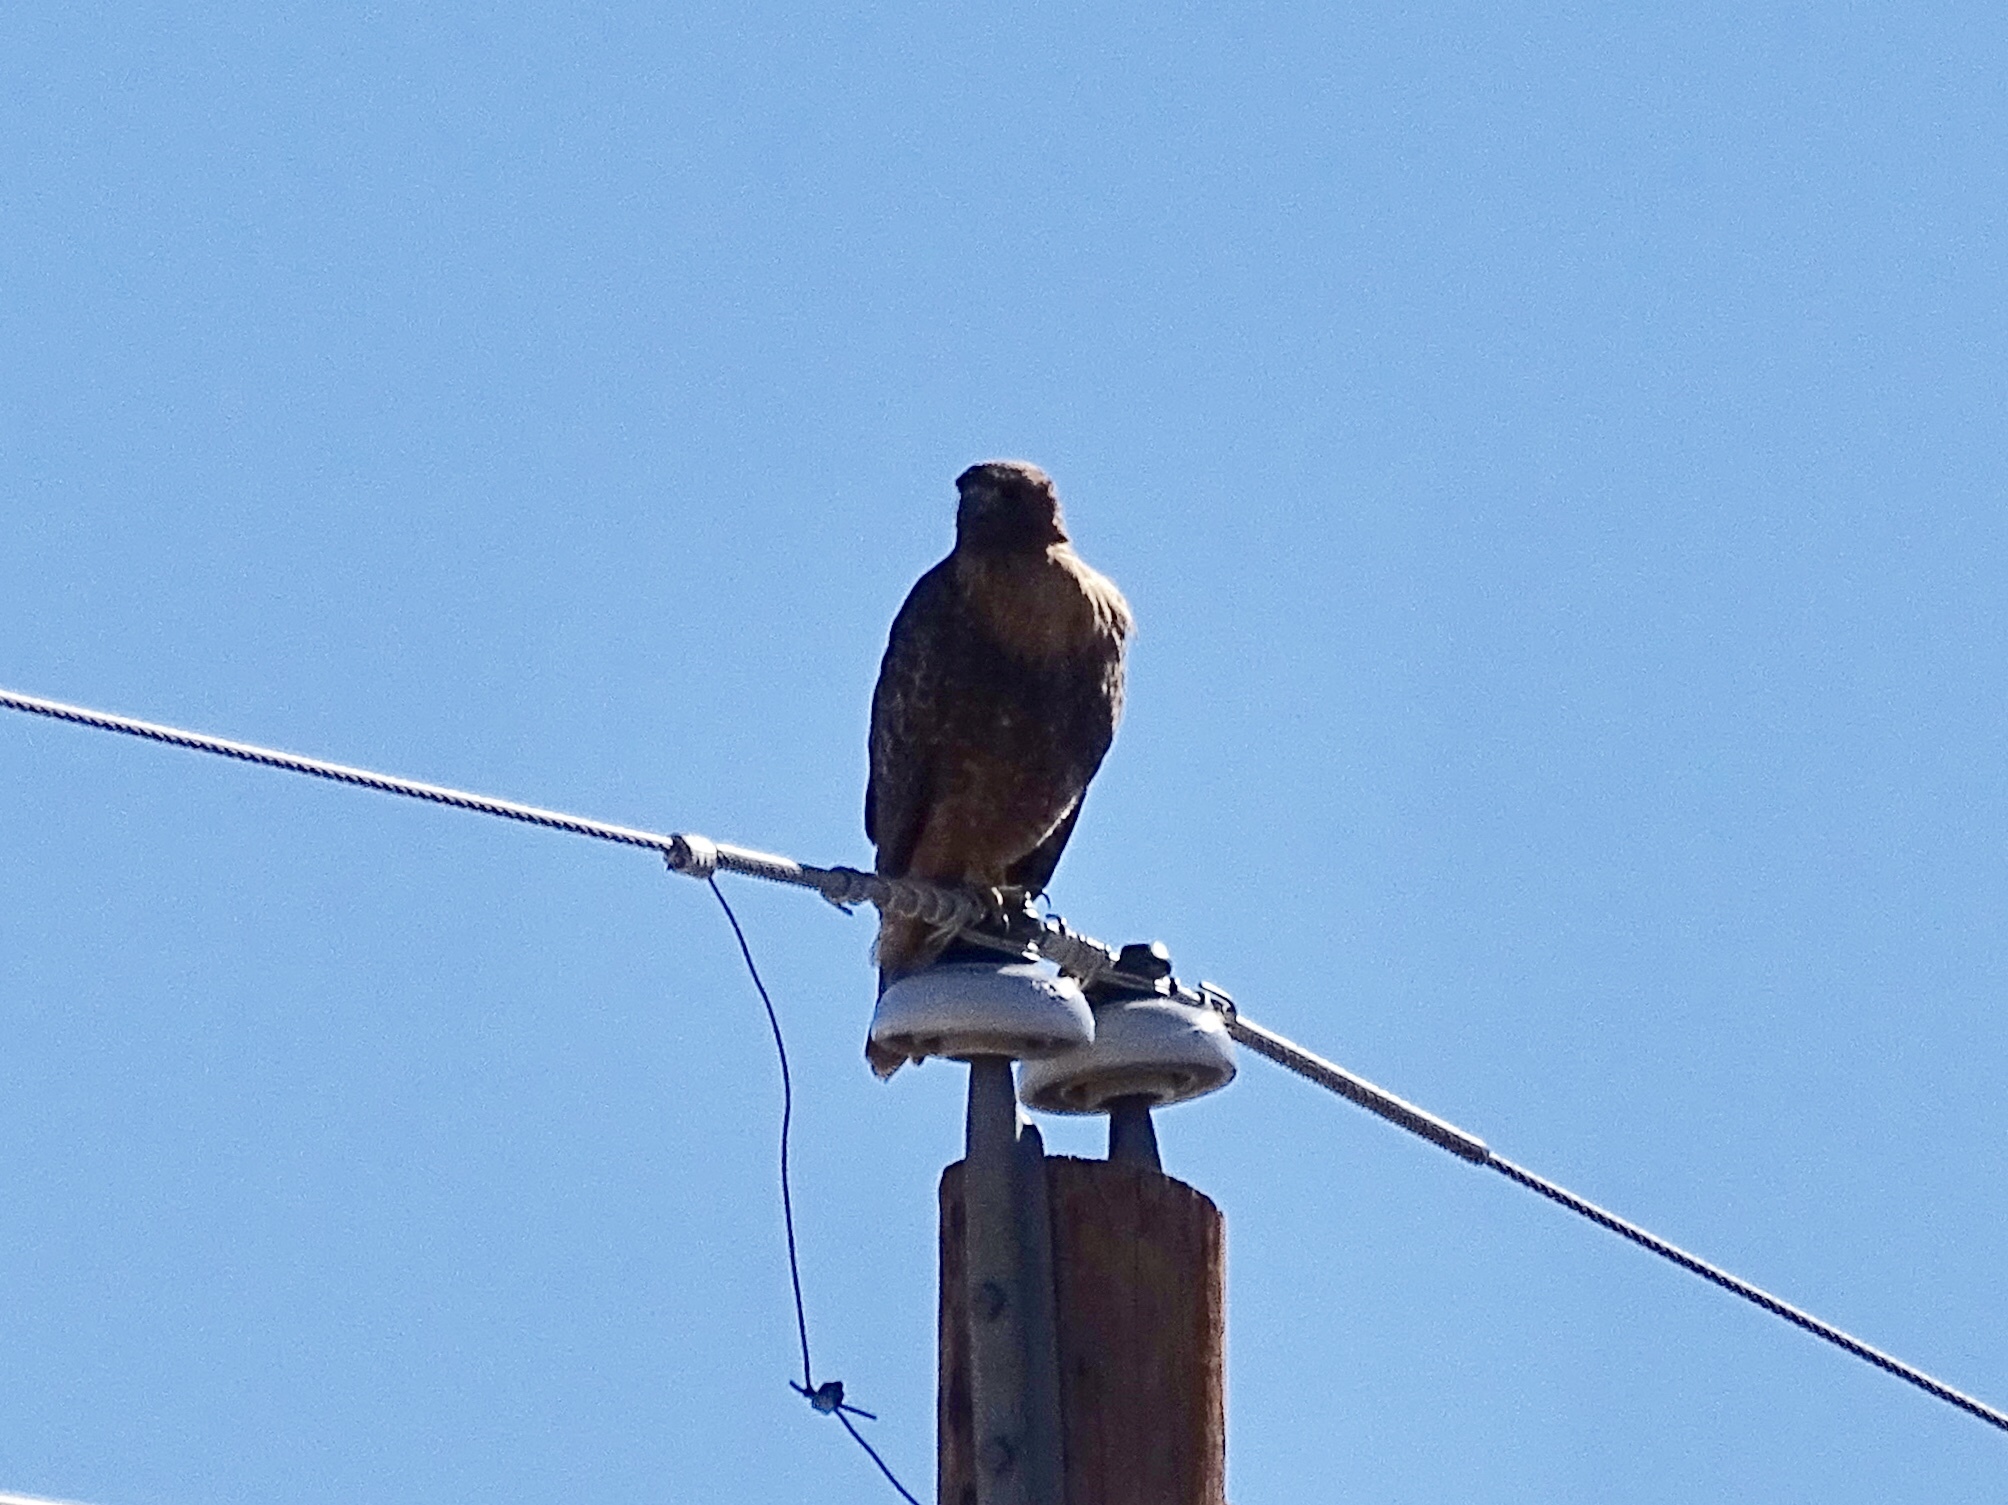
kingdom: Animalia
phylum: Chordata
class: Aves
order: Accipitriformes
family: Accipitridae
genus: Buteo
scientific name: Buteo jamaicensis
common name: Red-tailed hawk
